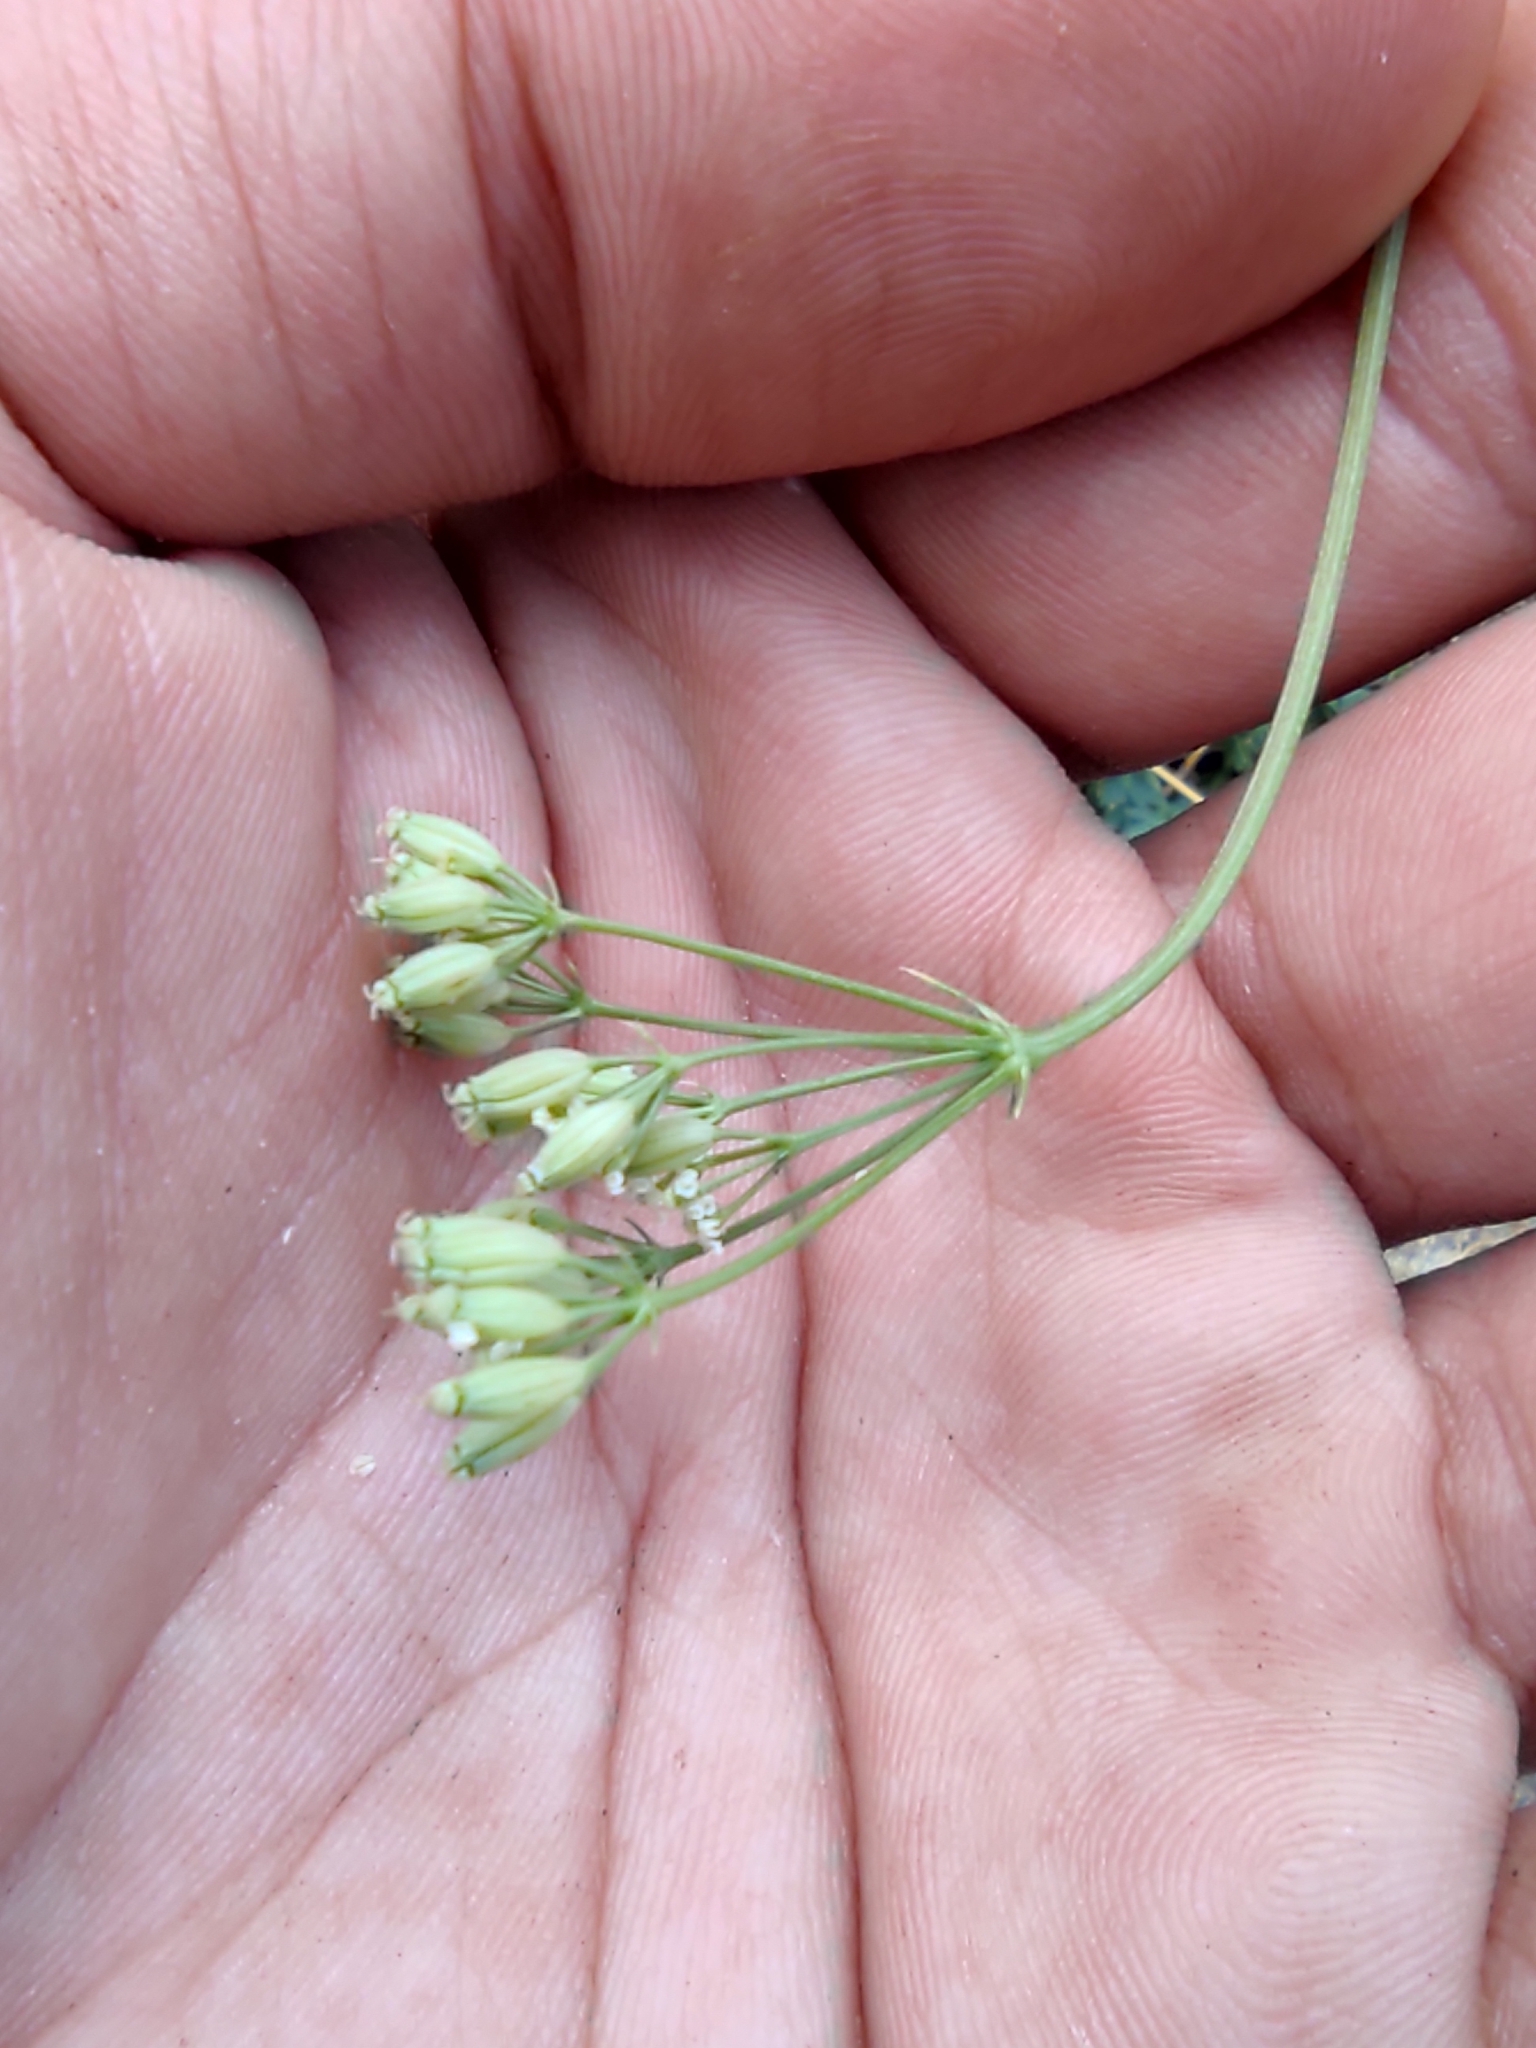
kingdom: Plantae
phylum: Tracheophyta
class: Magnoliopsida
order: Apiales
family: Apiaceae
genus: Aegokeras
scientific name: Aegokeras caespitosa
